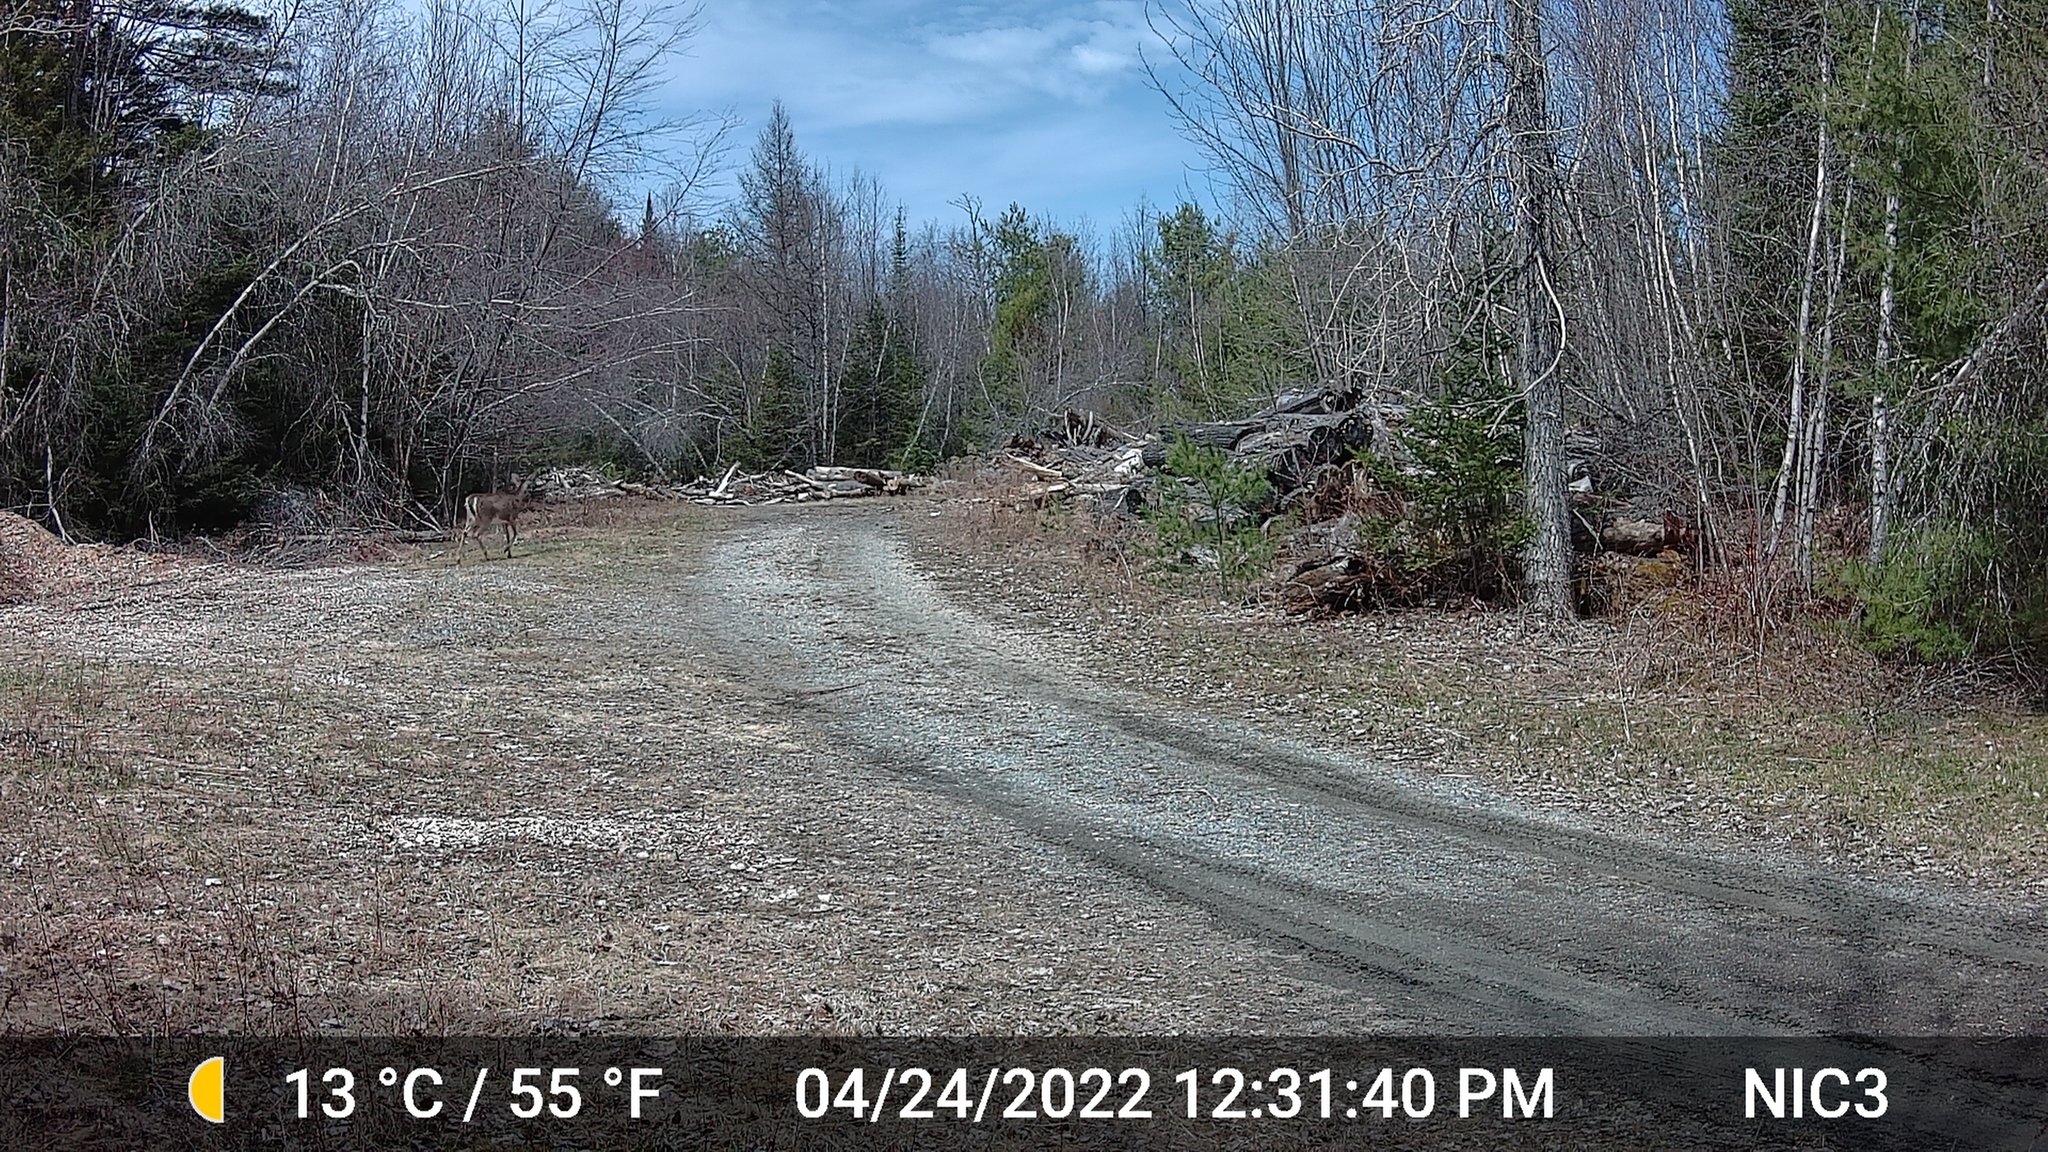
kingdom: Animalia
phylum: Chordata
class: Mammalia
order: Artiodactyla
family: Cervidae
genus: Odocoileus
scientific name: Odocoileus virginianus
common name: White-tailed deer
